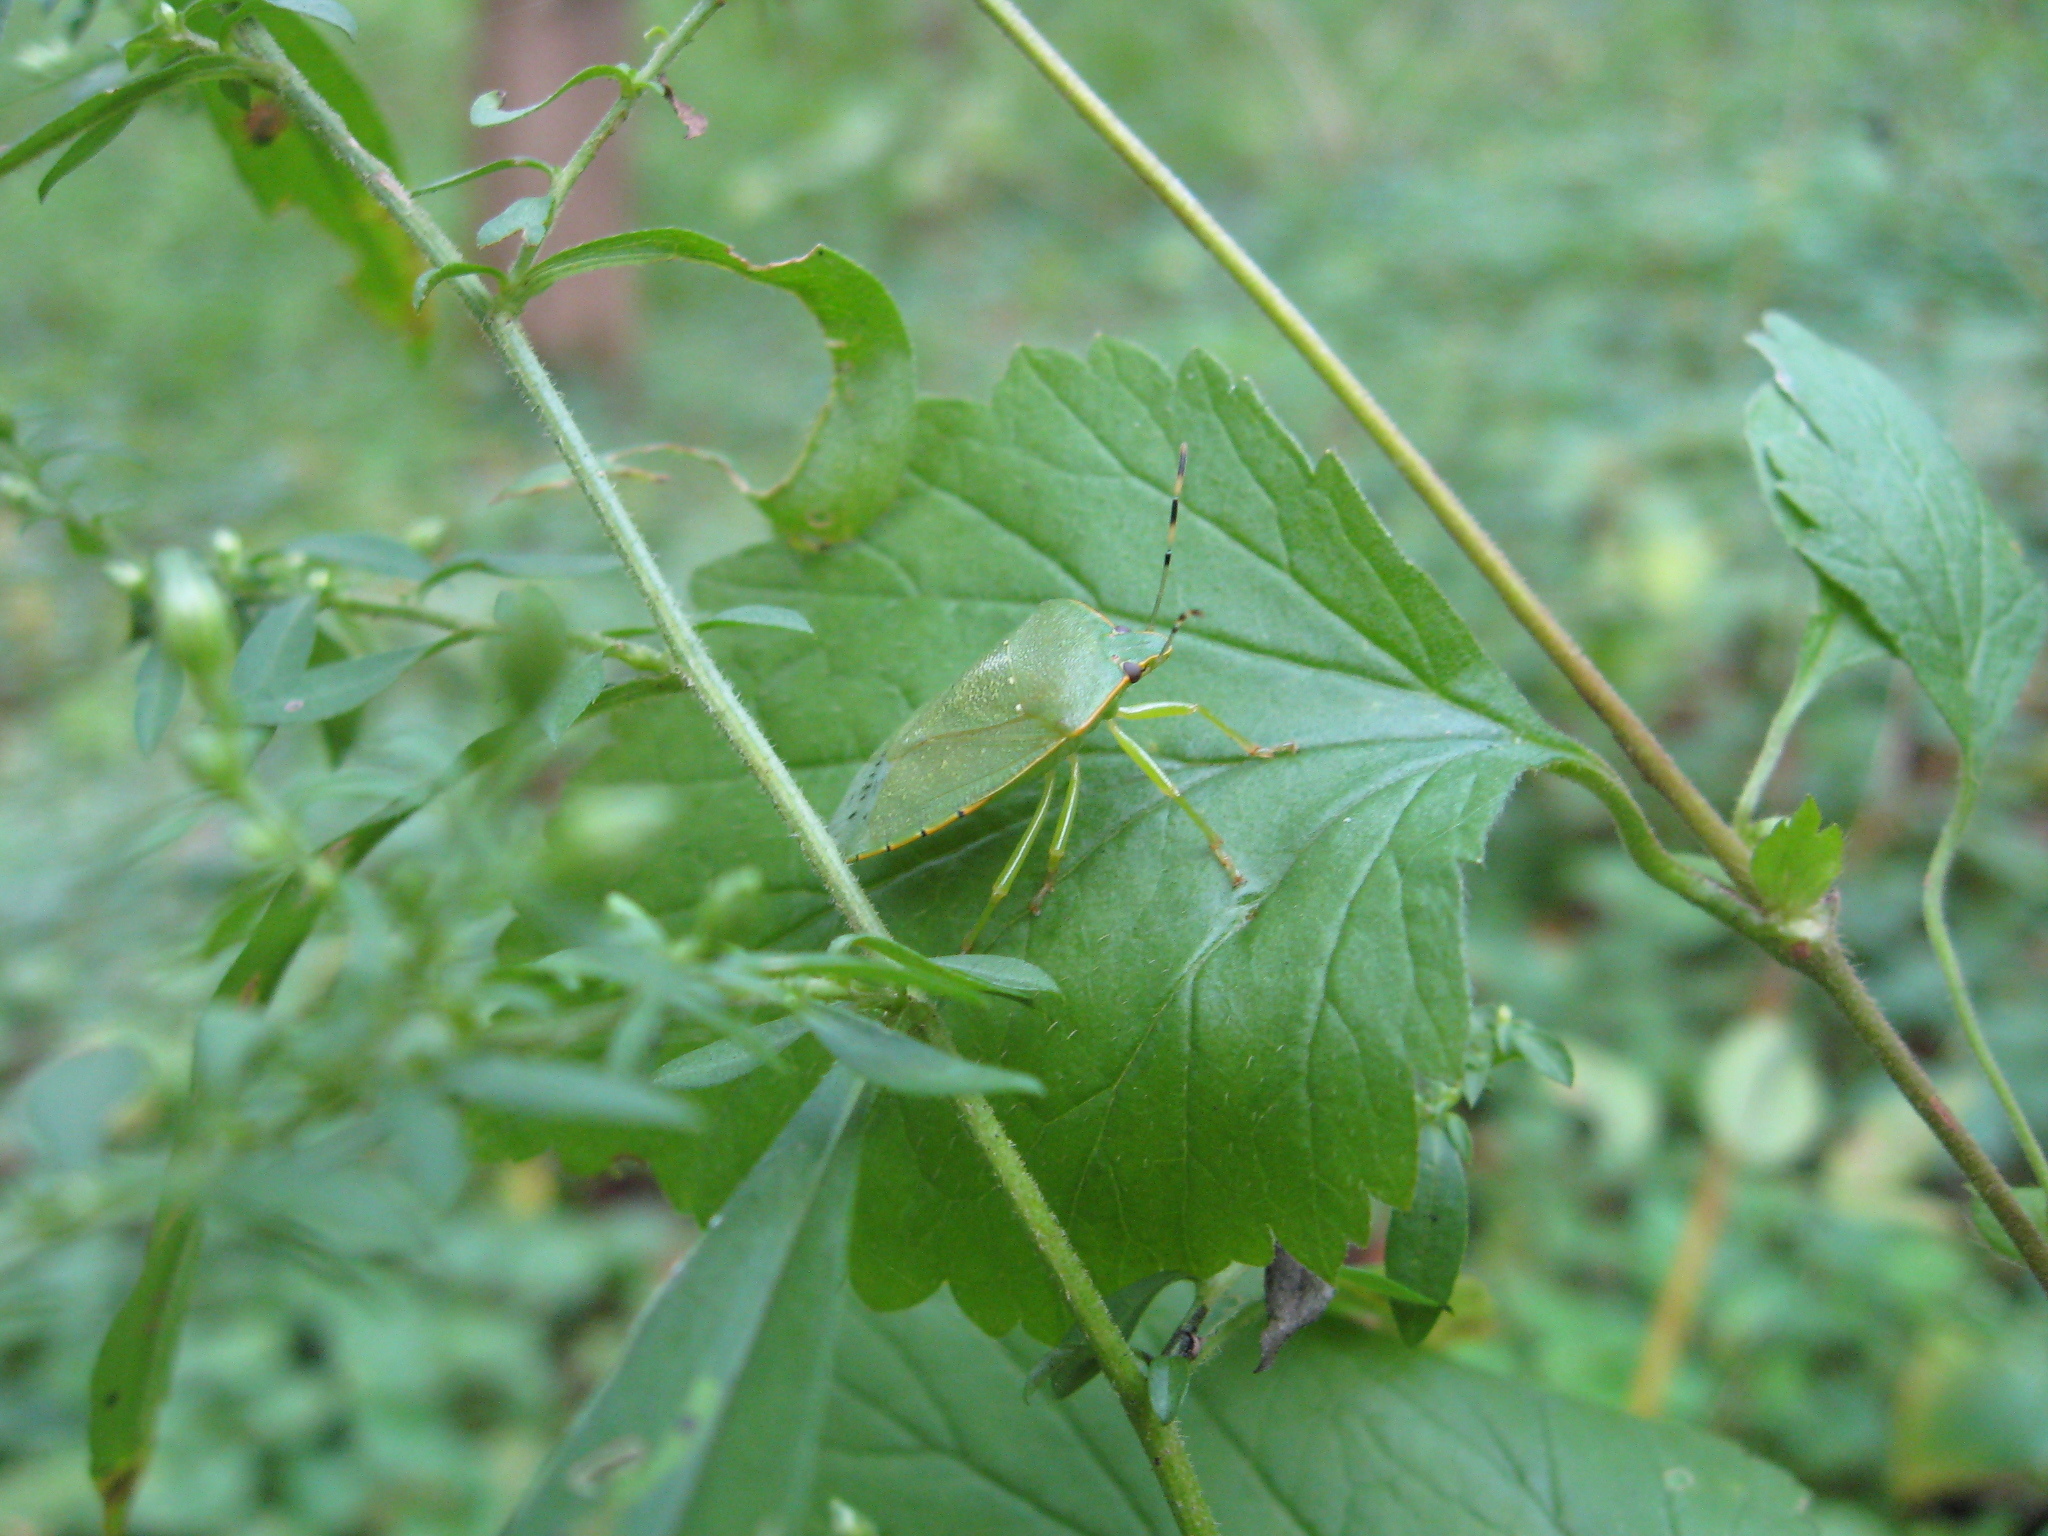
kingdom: Animalia
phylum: Arthropoda
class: Insecta
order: Hemiptera
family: Pentatomidae
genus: Chinavia
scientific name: Chinavia hilaris
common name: Green stink bug
